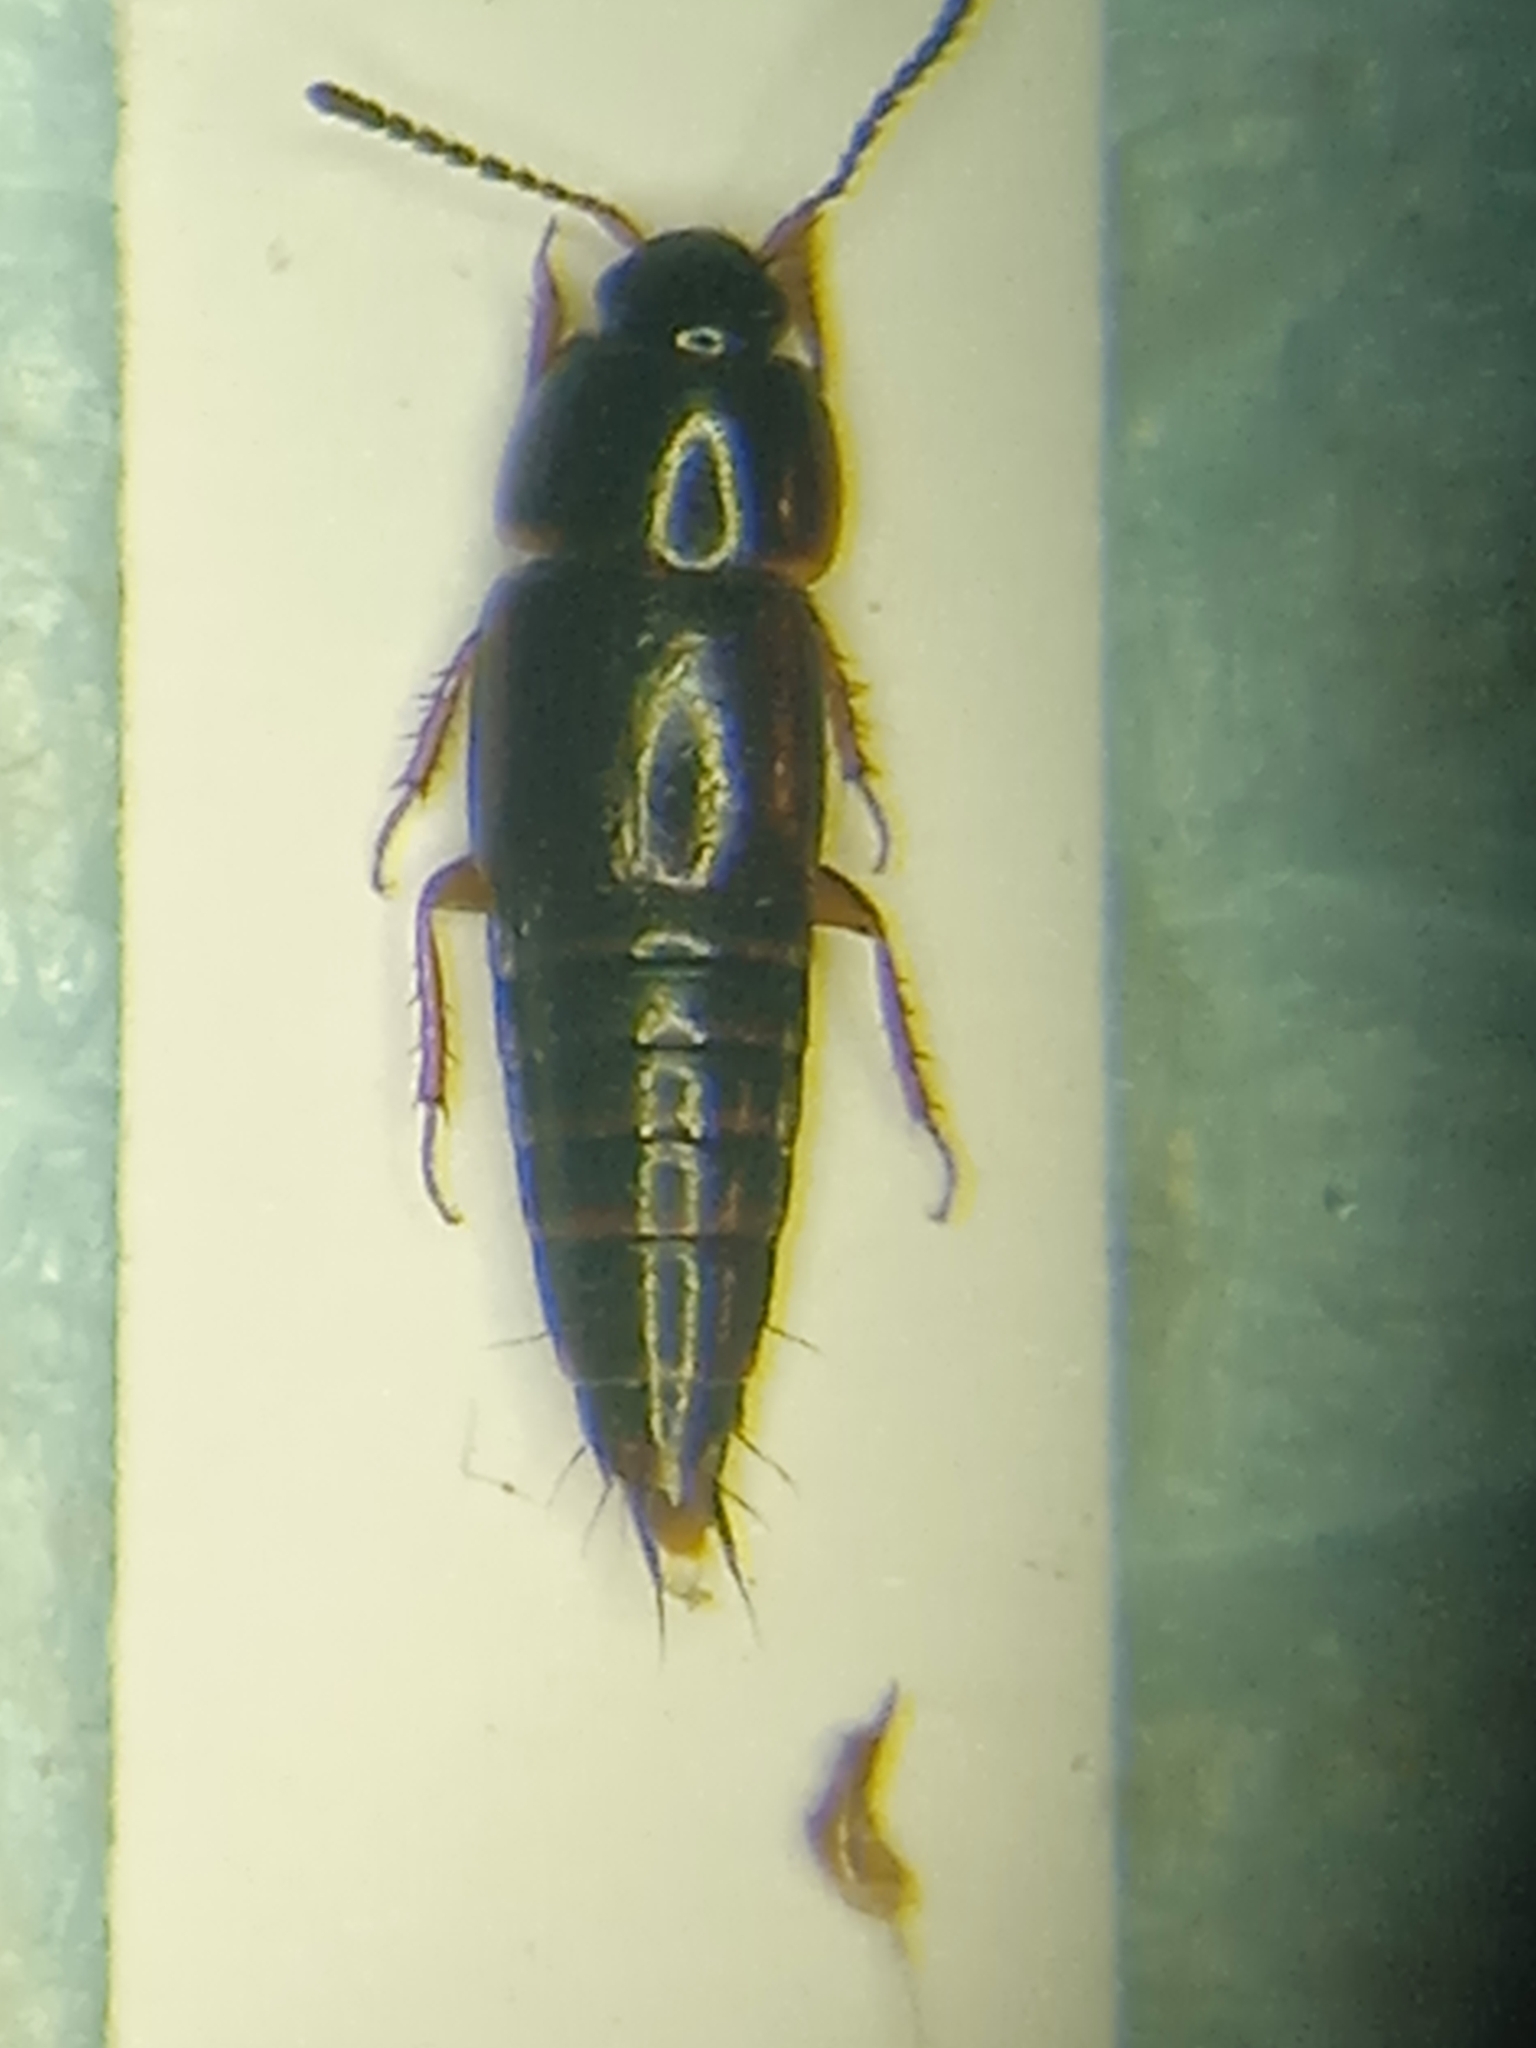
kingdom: Animalia
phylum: Arthropoda
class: Insecta
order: Coleoptera
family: Staphylinidae
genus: Tachinus
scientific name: Tachinus laticollis
